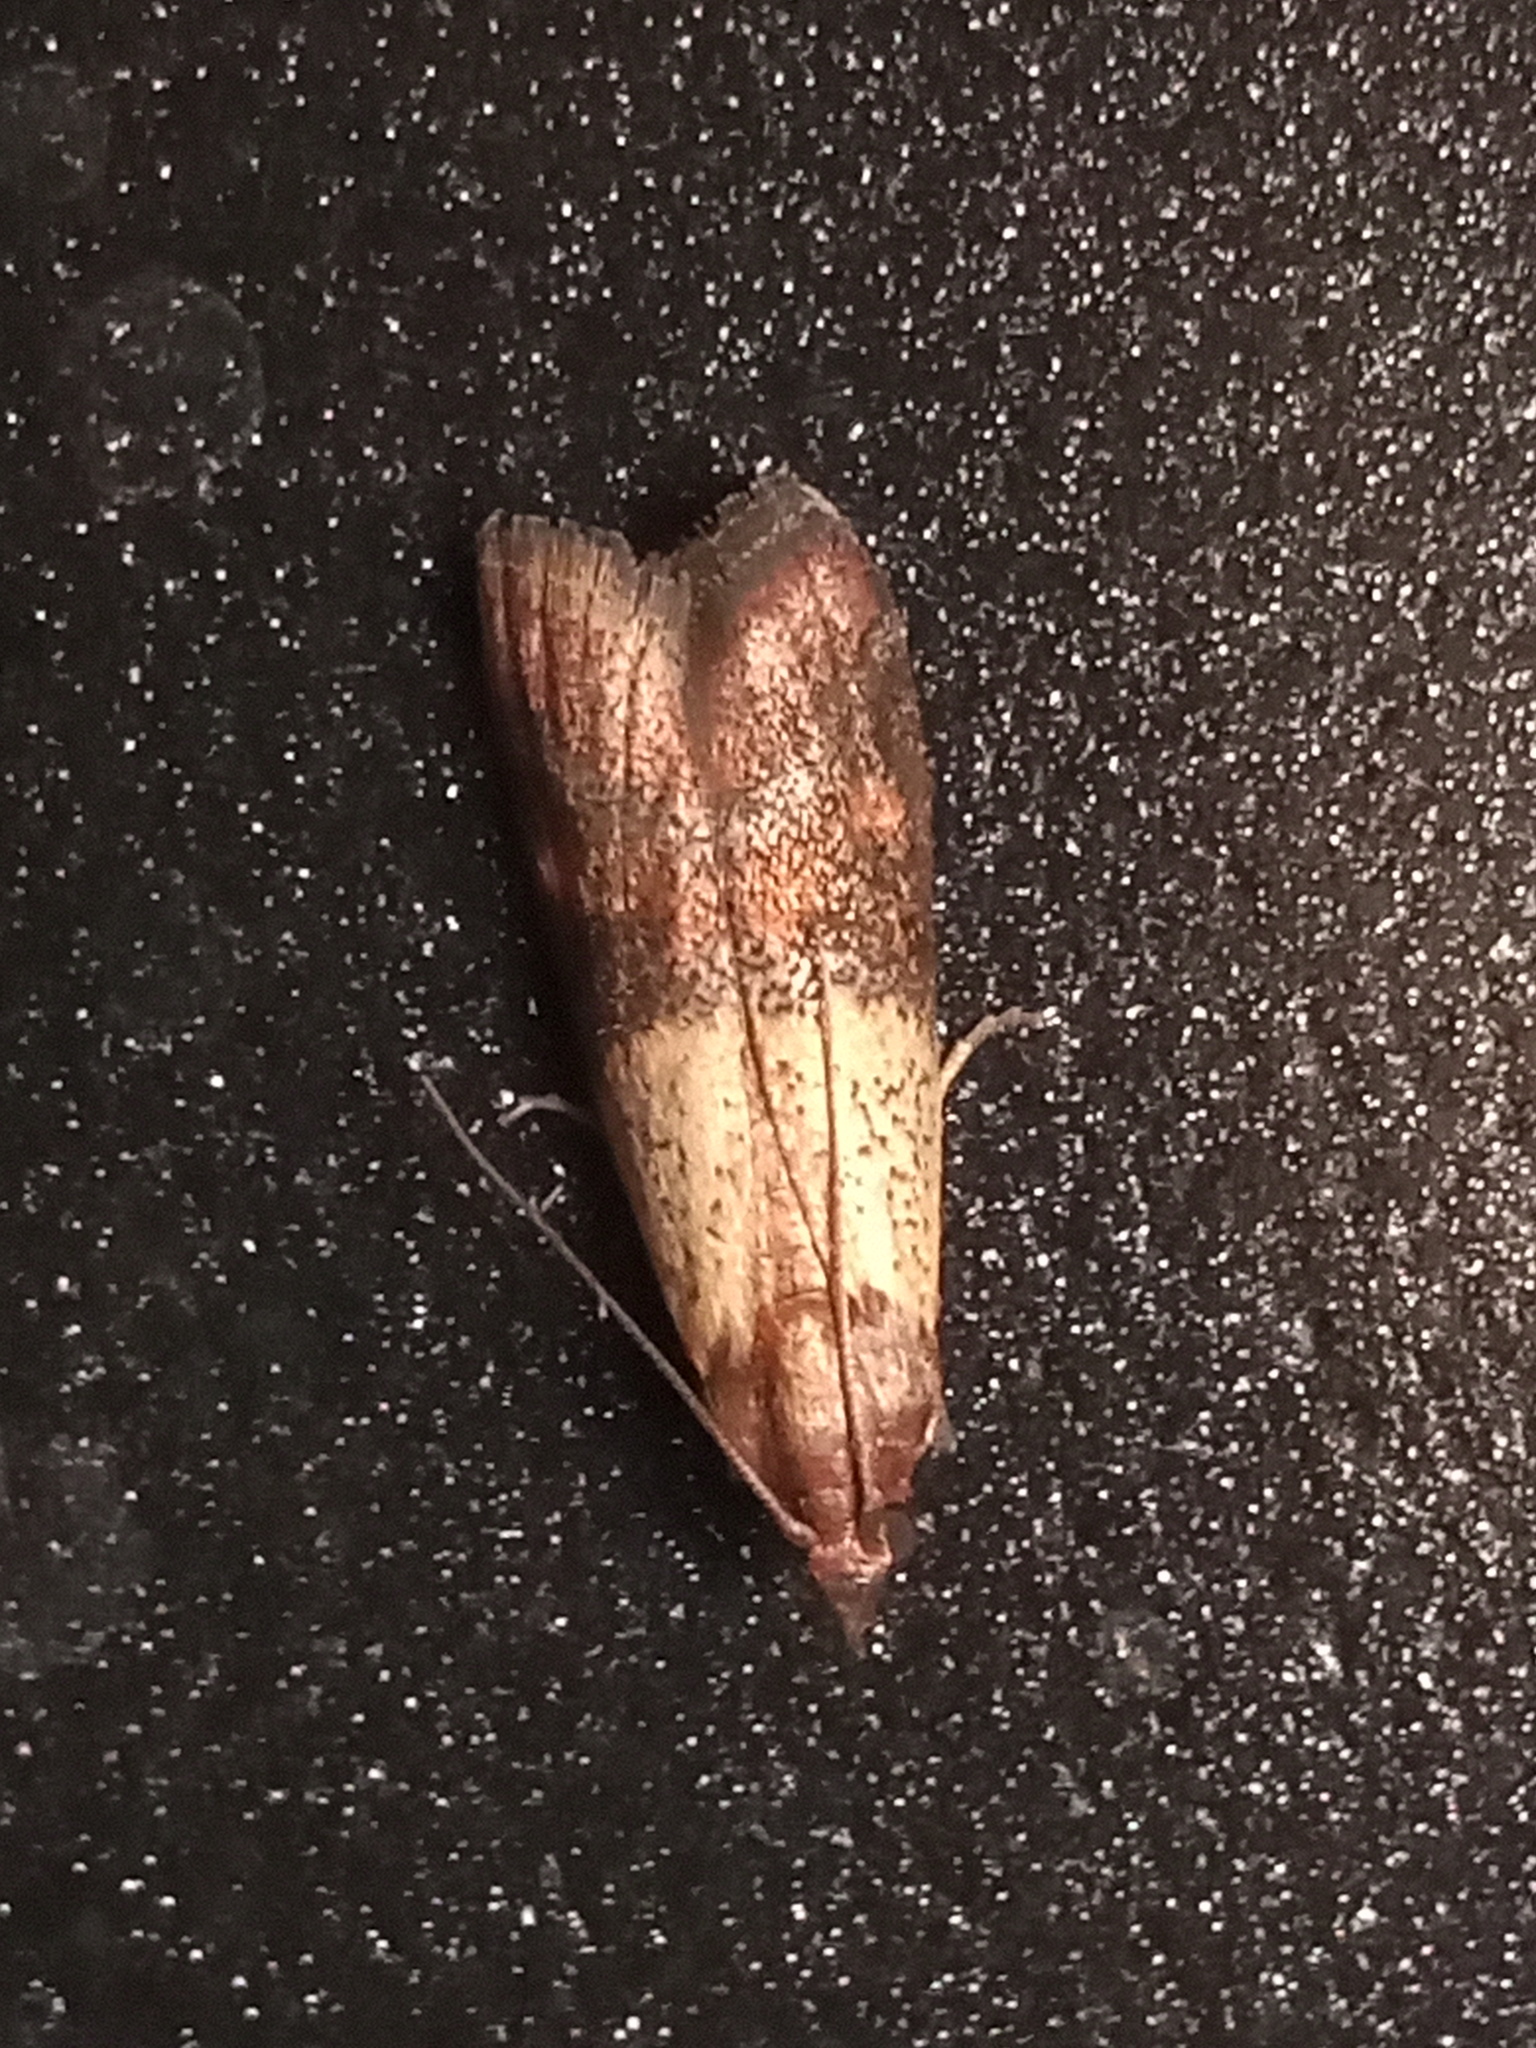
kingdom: Animalia
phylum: Arthropoda
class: Insecta
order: Lepidoptera
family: Pyralidae
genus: Plodia
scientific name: Plodia interpunctella
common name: Indian meal moth
